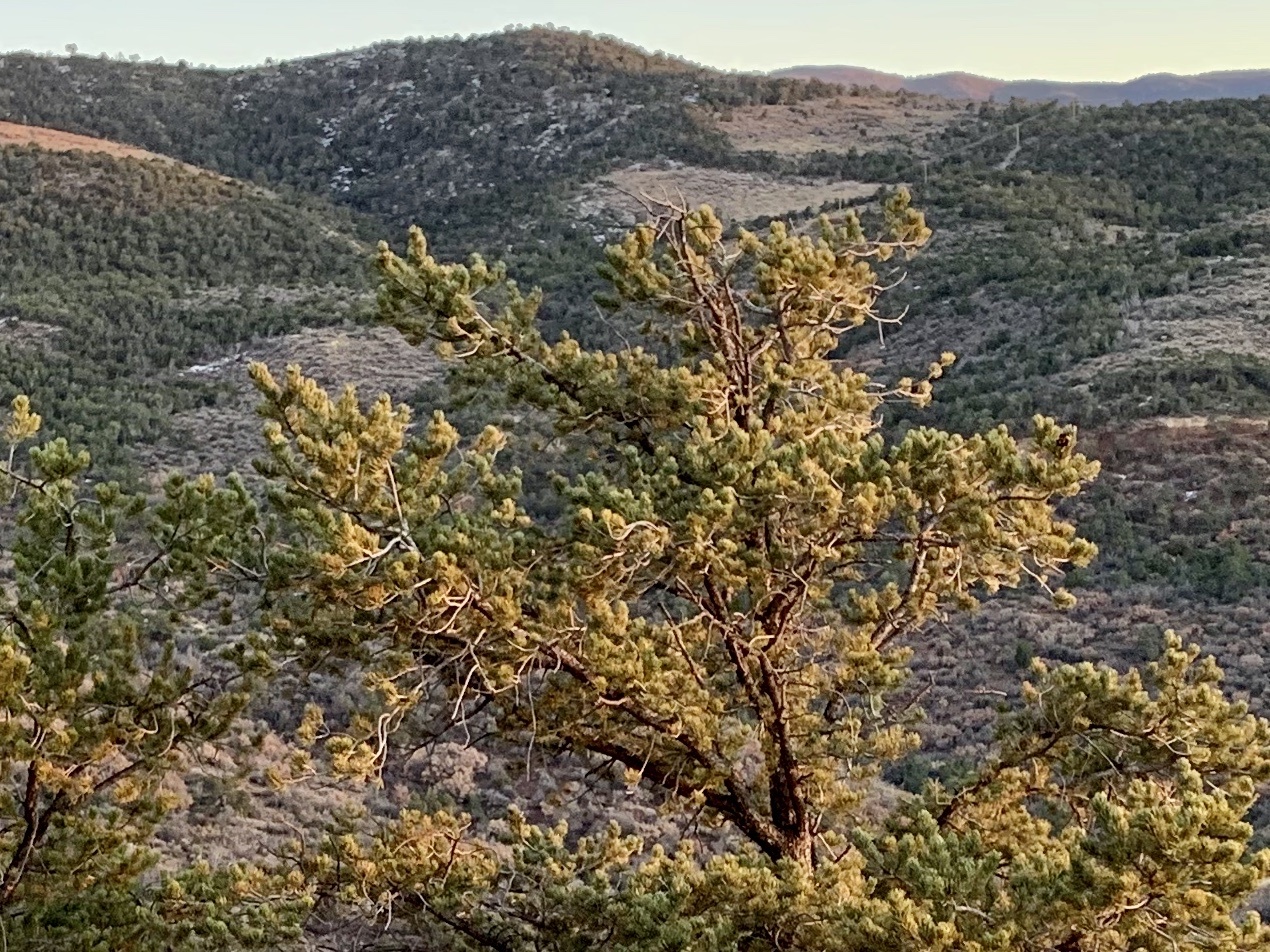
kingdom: Plantae
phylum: Tracheophyta
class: Pinopsida
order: Pinales
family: Pinaceae
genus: Pinus
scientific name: Pinus edulis
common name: Colorado pinyon
